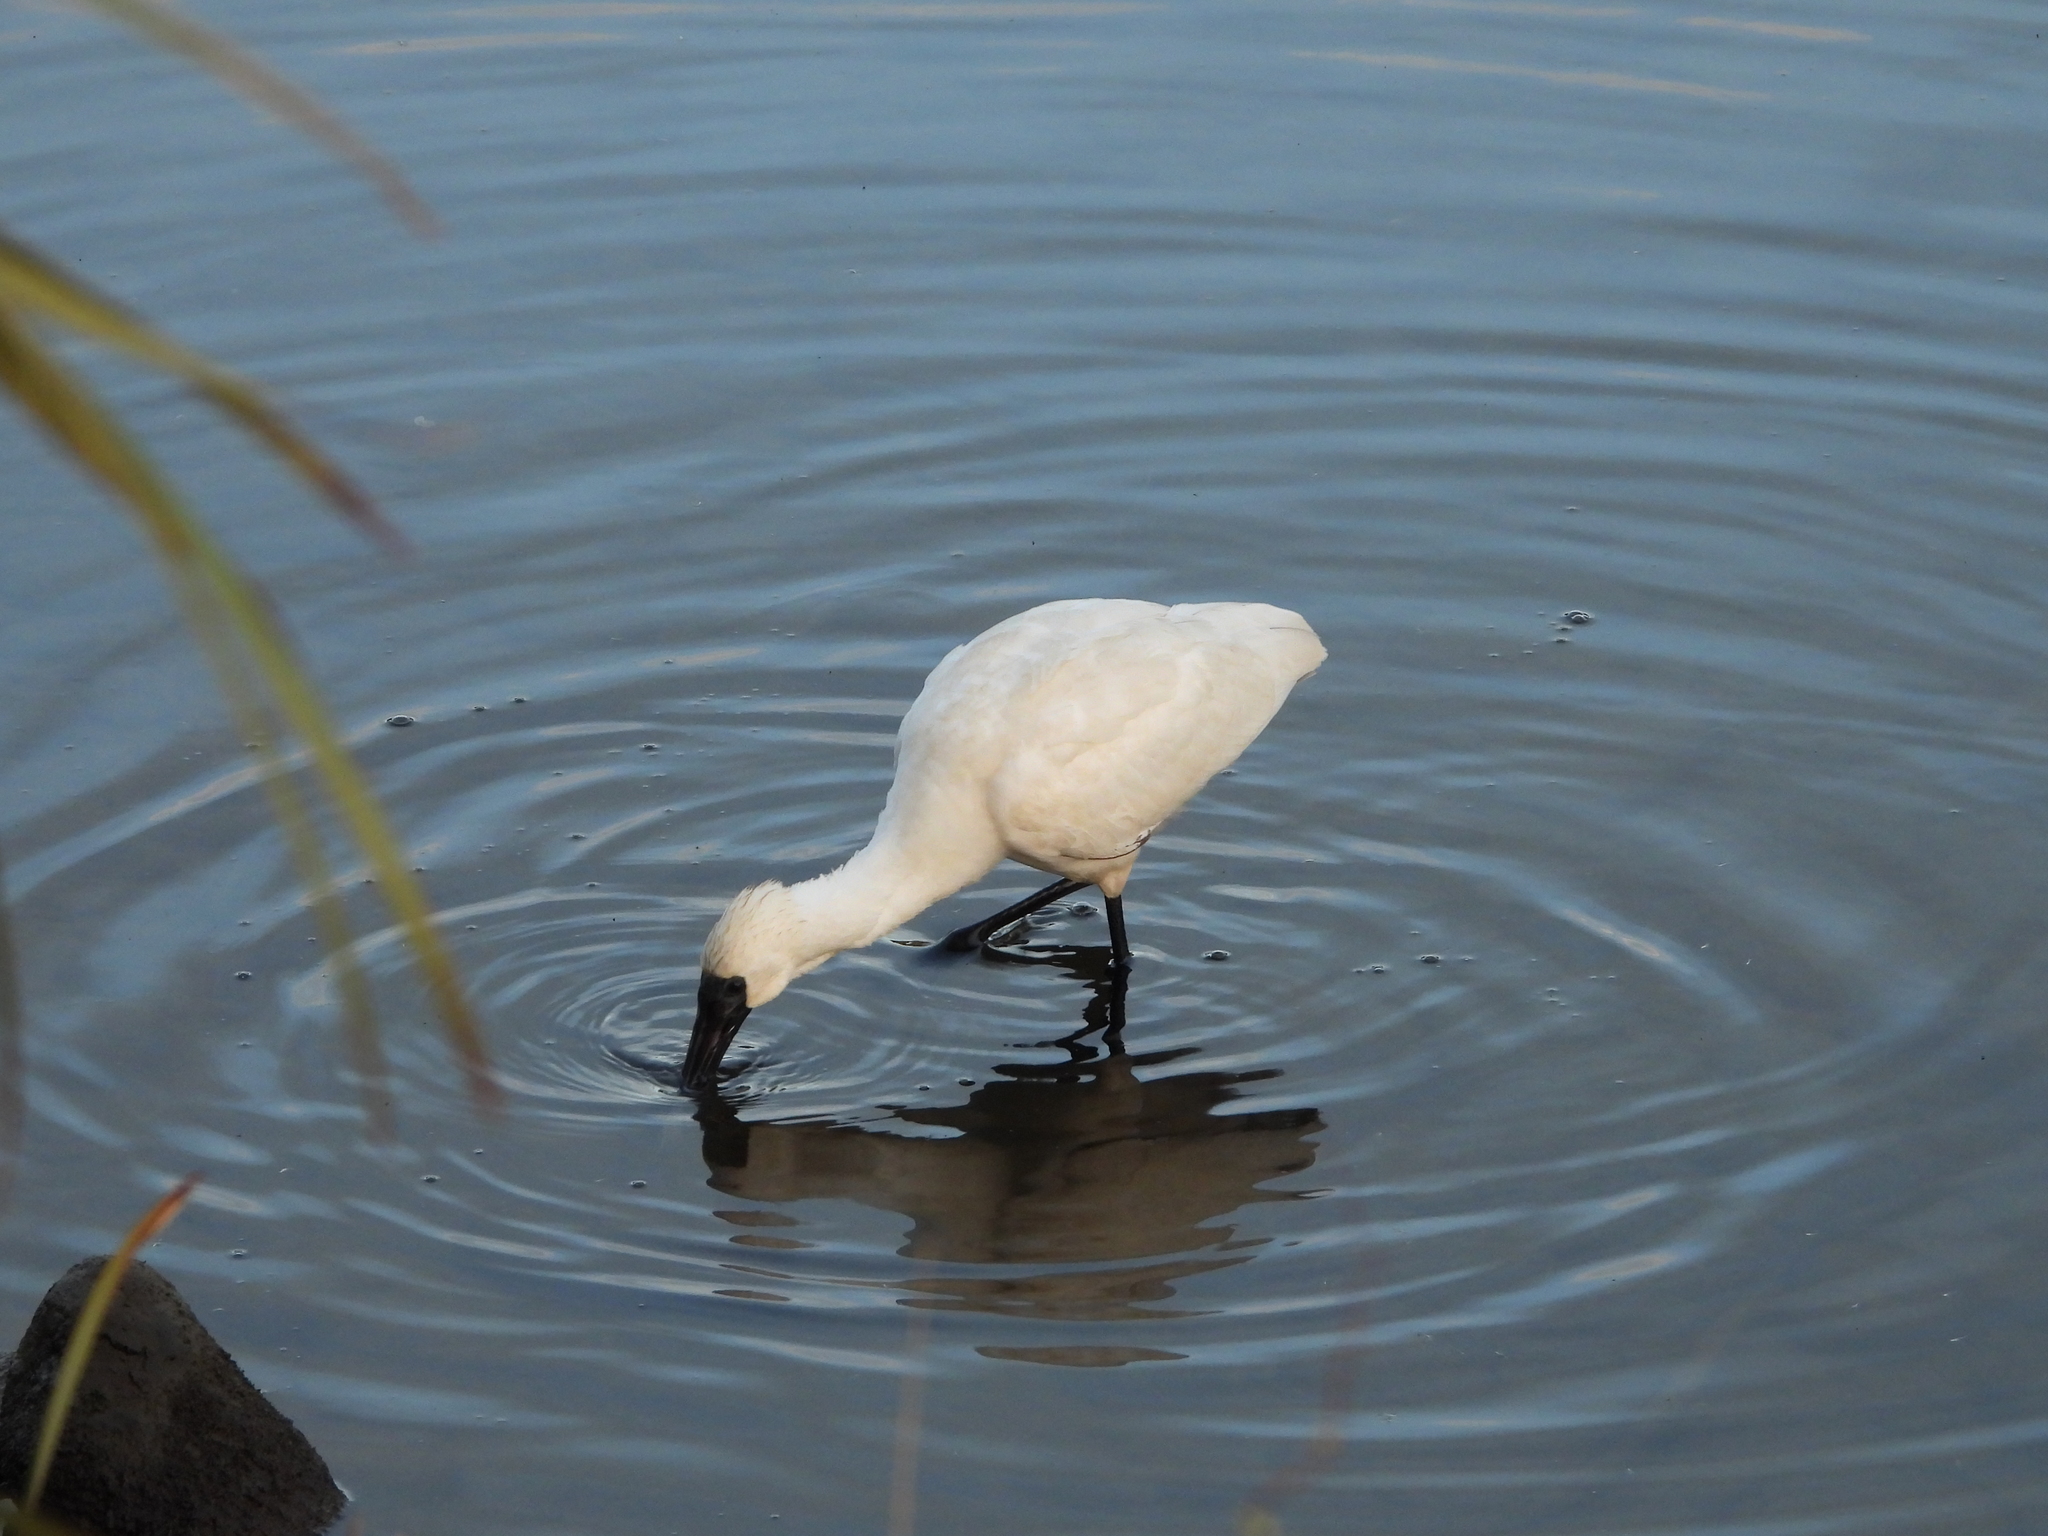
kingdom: Animalia
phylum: Chordata
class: Aves
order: Pelecaniformes
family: Threskiornithidae
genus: Platalea
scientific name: Platalea regia
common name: Royal spoonbill
